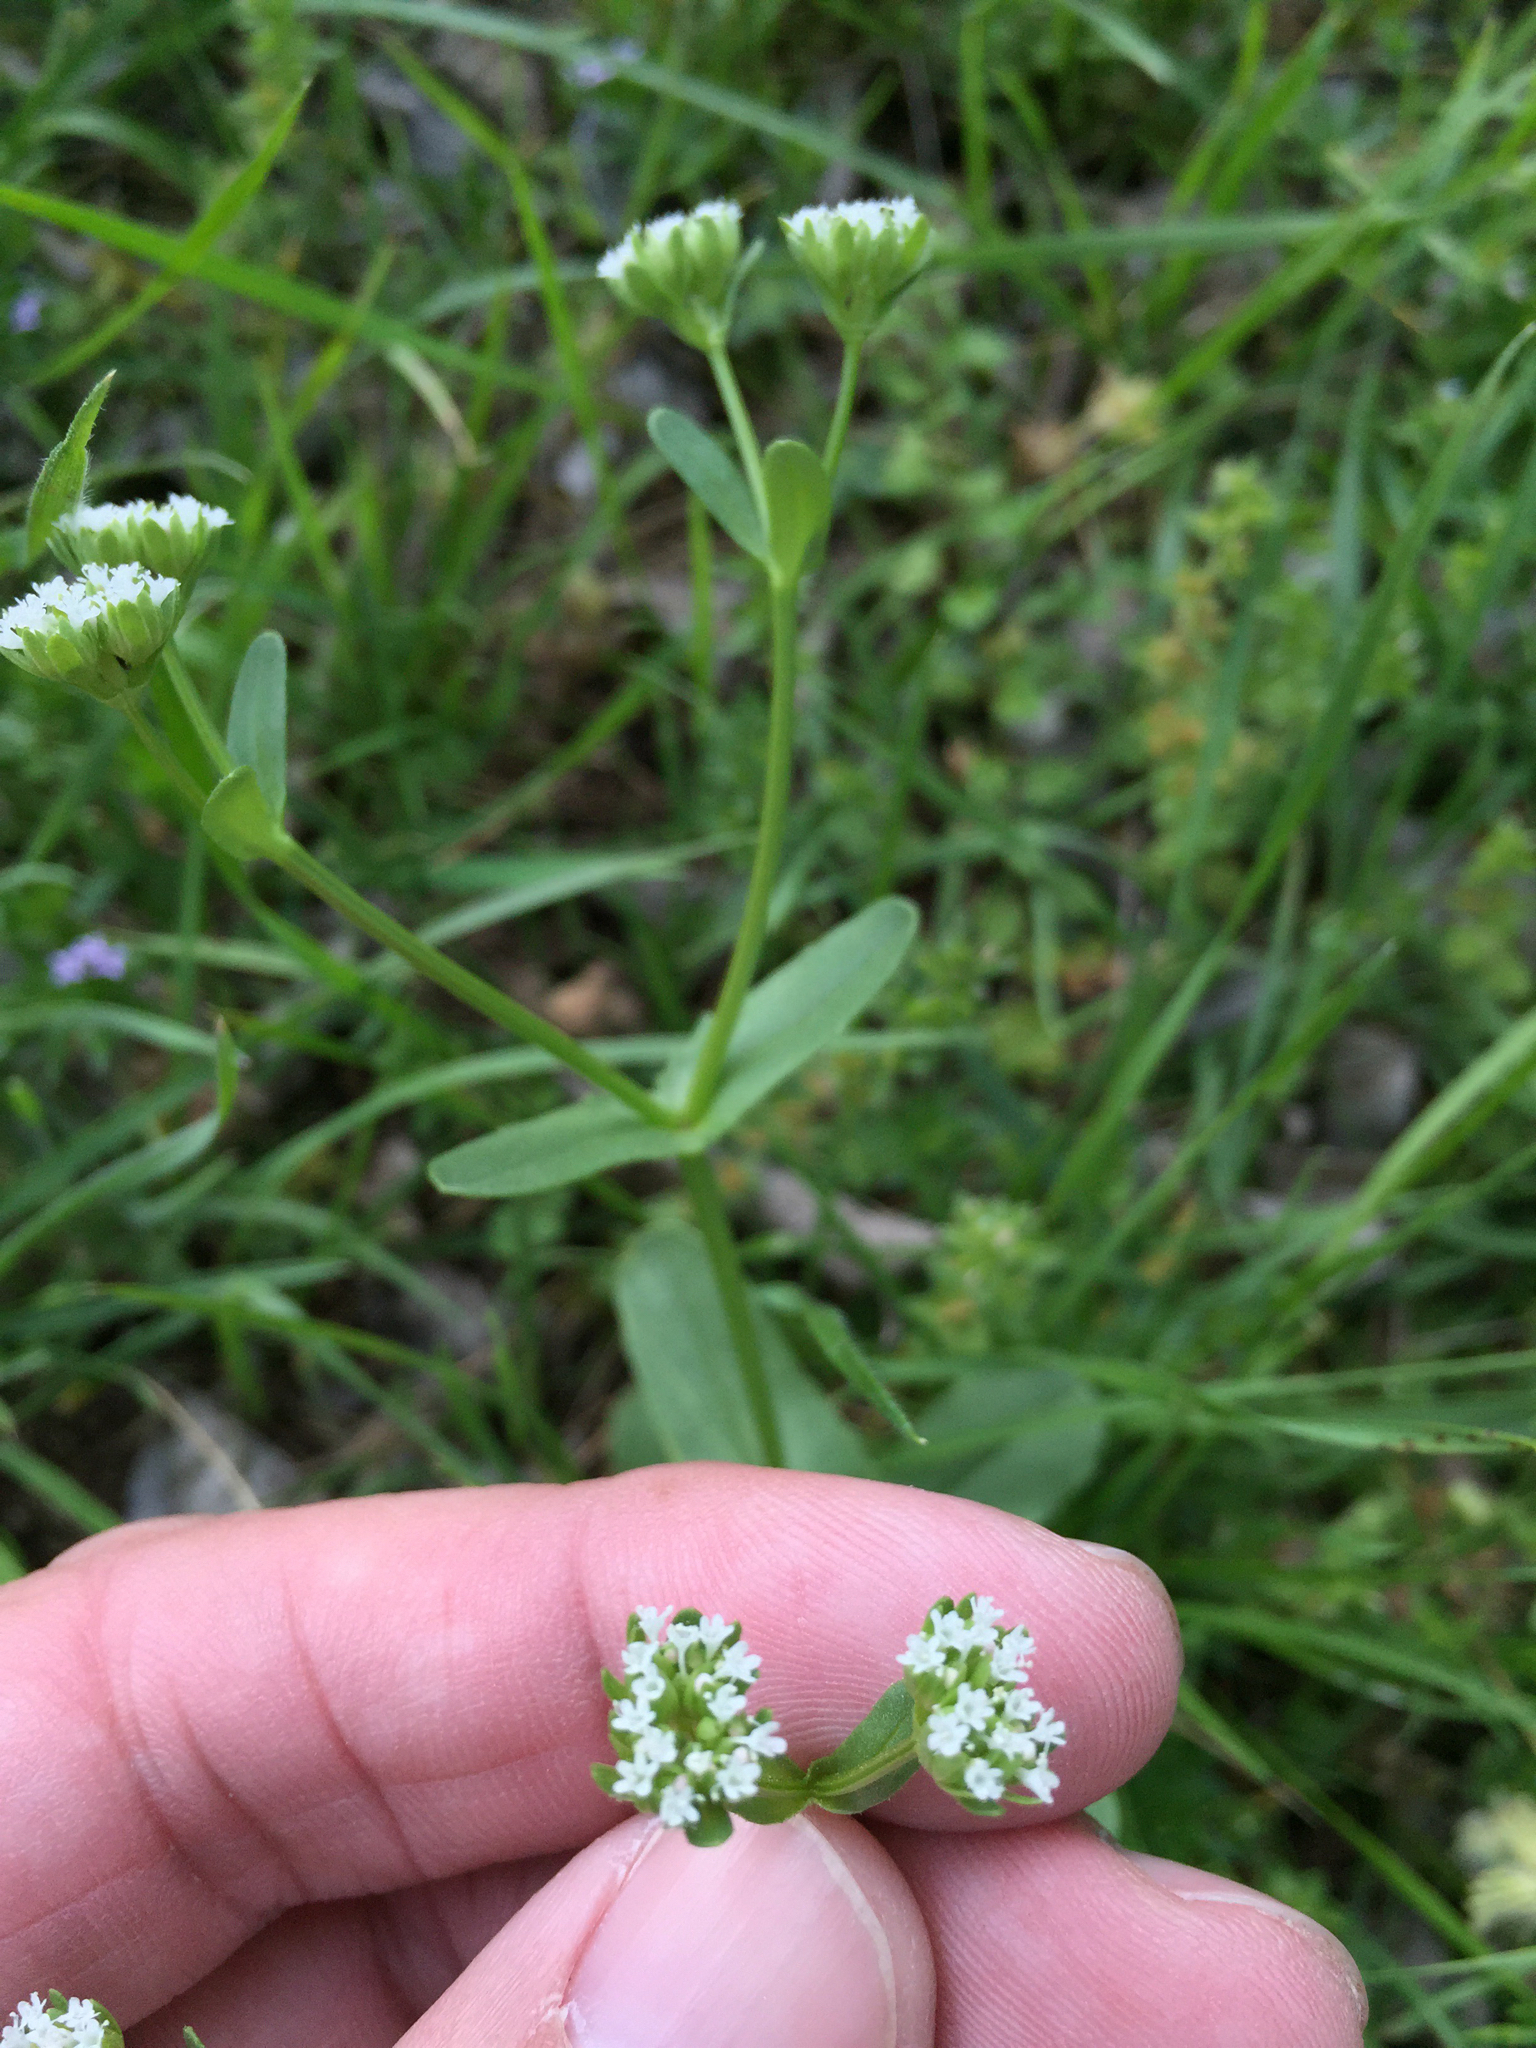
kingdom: Plantae
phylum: Tracheophyta
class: Magnoliopsida
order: Dipsacales
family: Caprifoliaceae
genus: Valerianella
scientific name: Valerianella radiata
